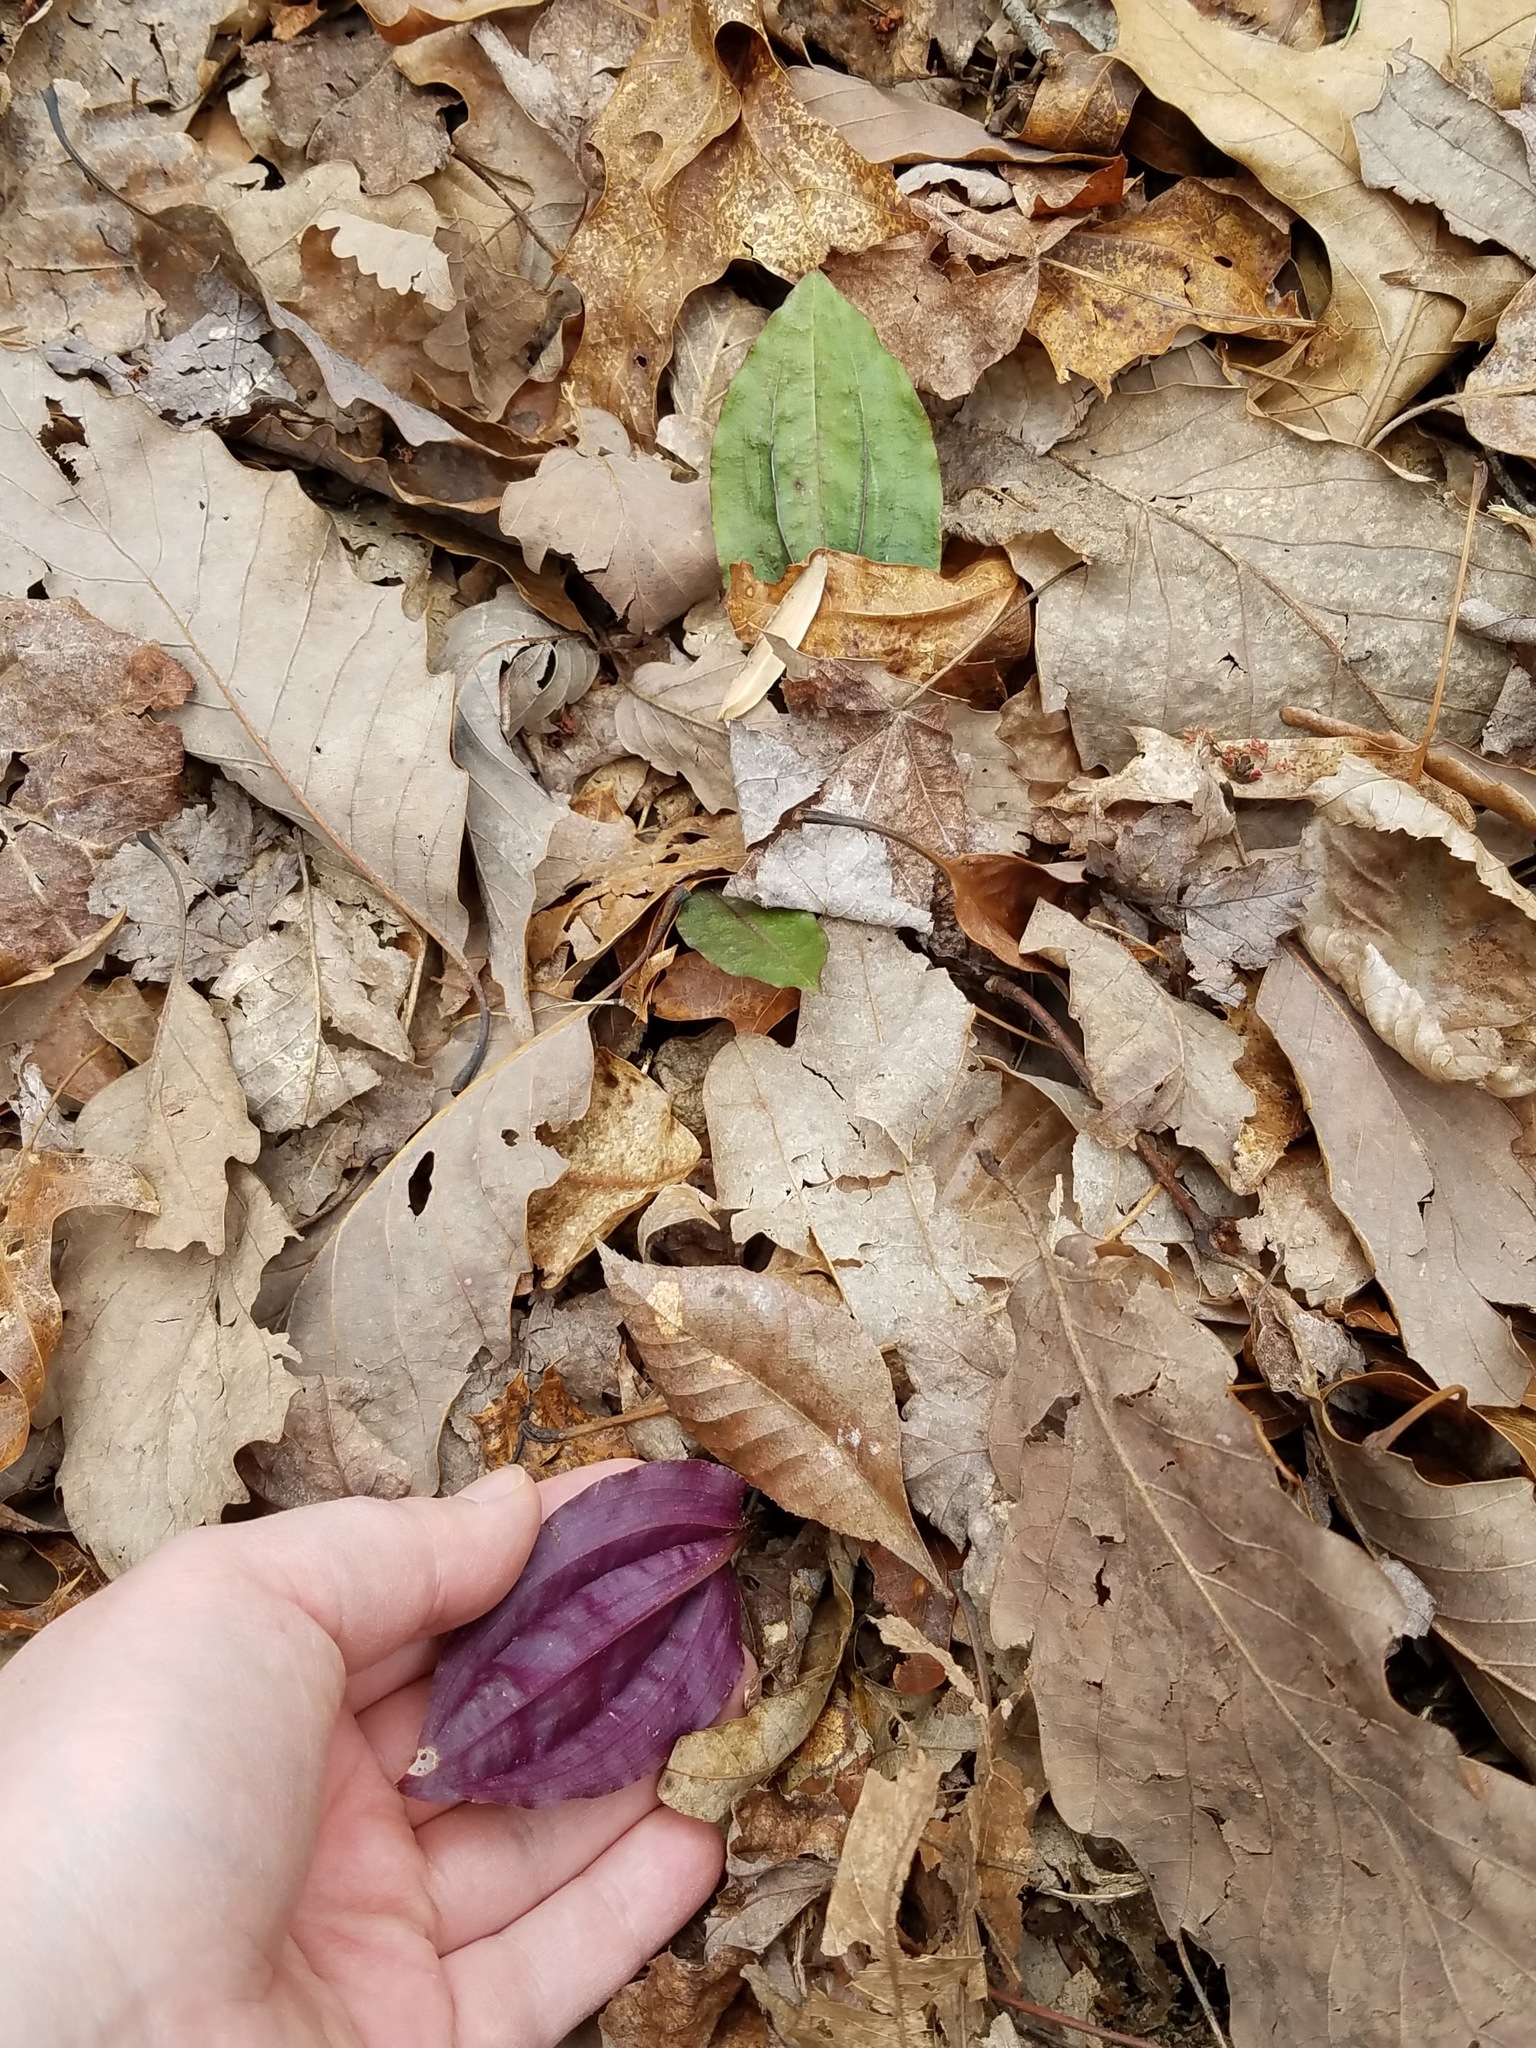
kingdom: Plantae
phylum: Tracheophyta
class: Liliopsida
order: Asparagales
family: Orchidaceae
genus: Tipularia
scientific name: Tipularia discolor
